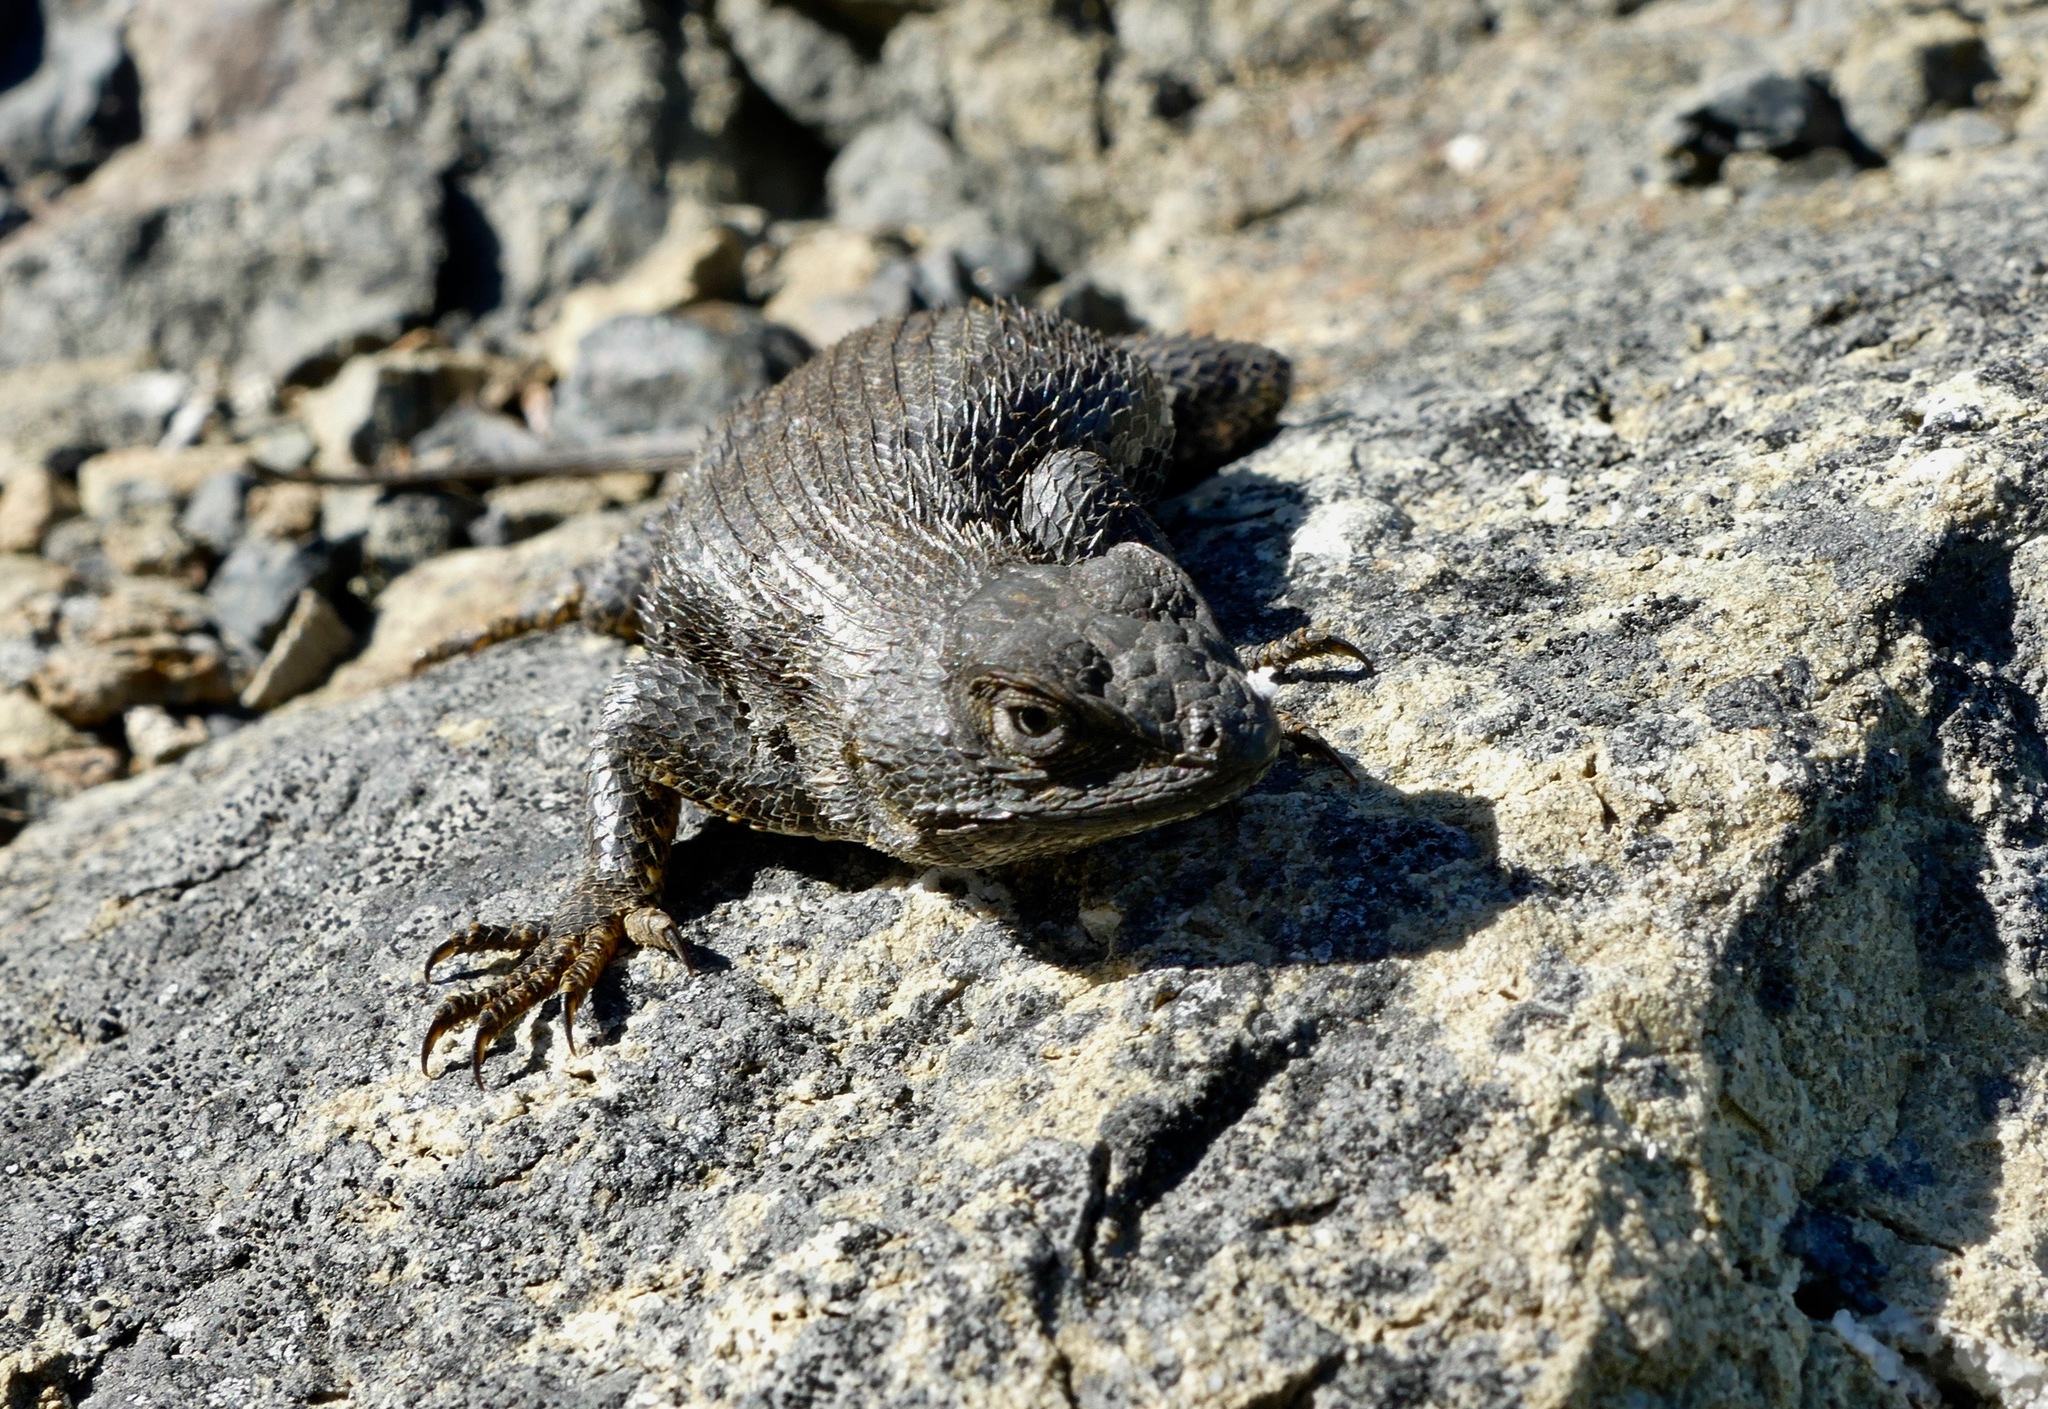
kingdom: Animalia
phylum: Chordata
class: Squamata
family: Phrynosomatidae
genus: Sceloporus
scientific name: Sceloporus occidentalis
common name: Western fence lizard
